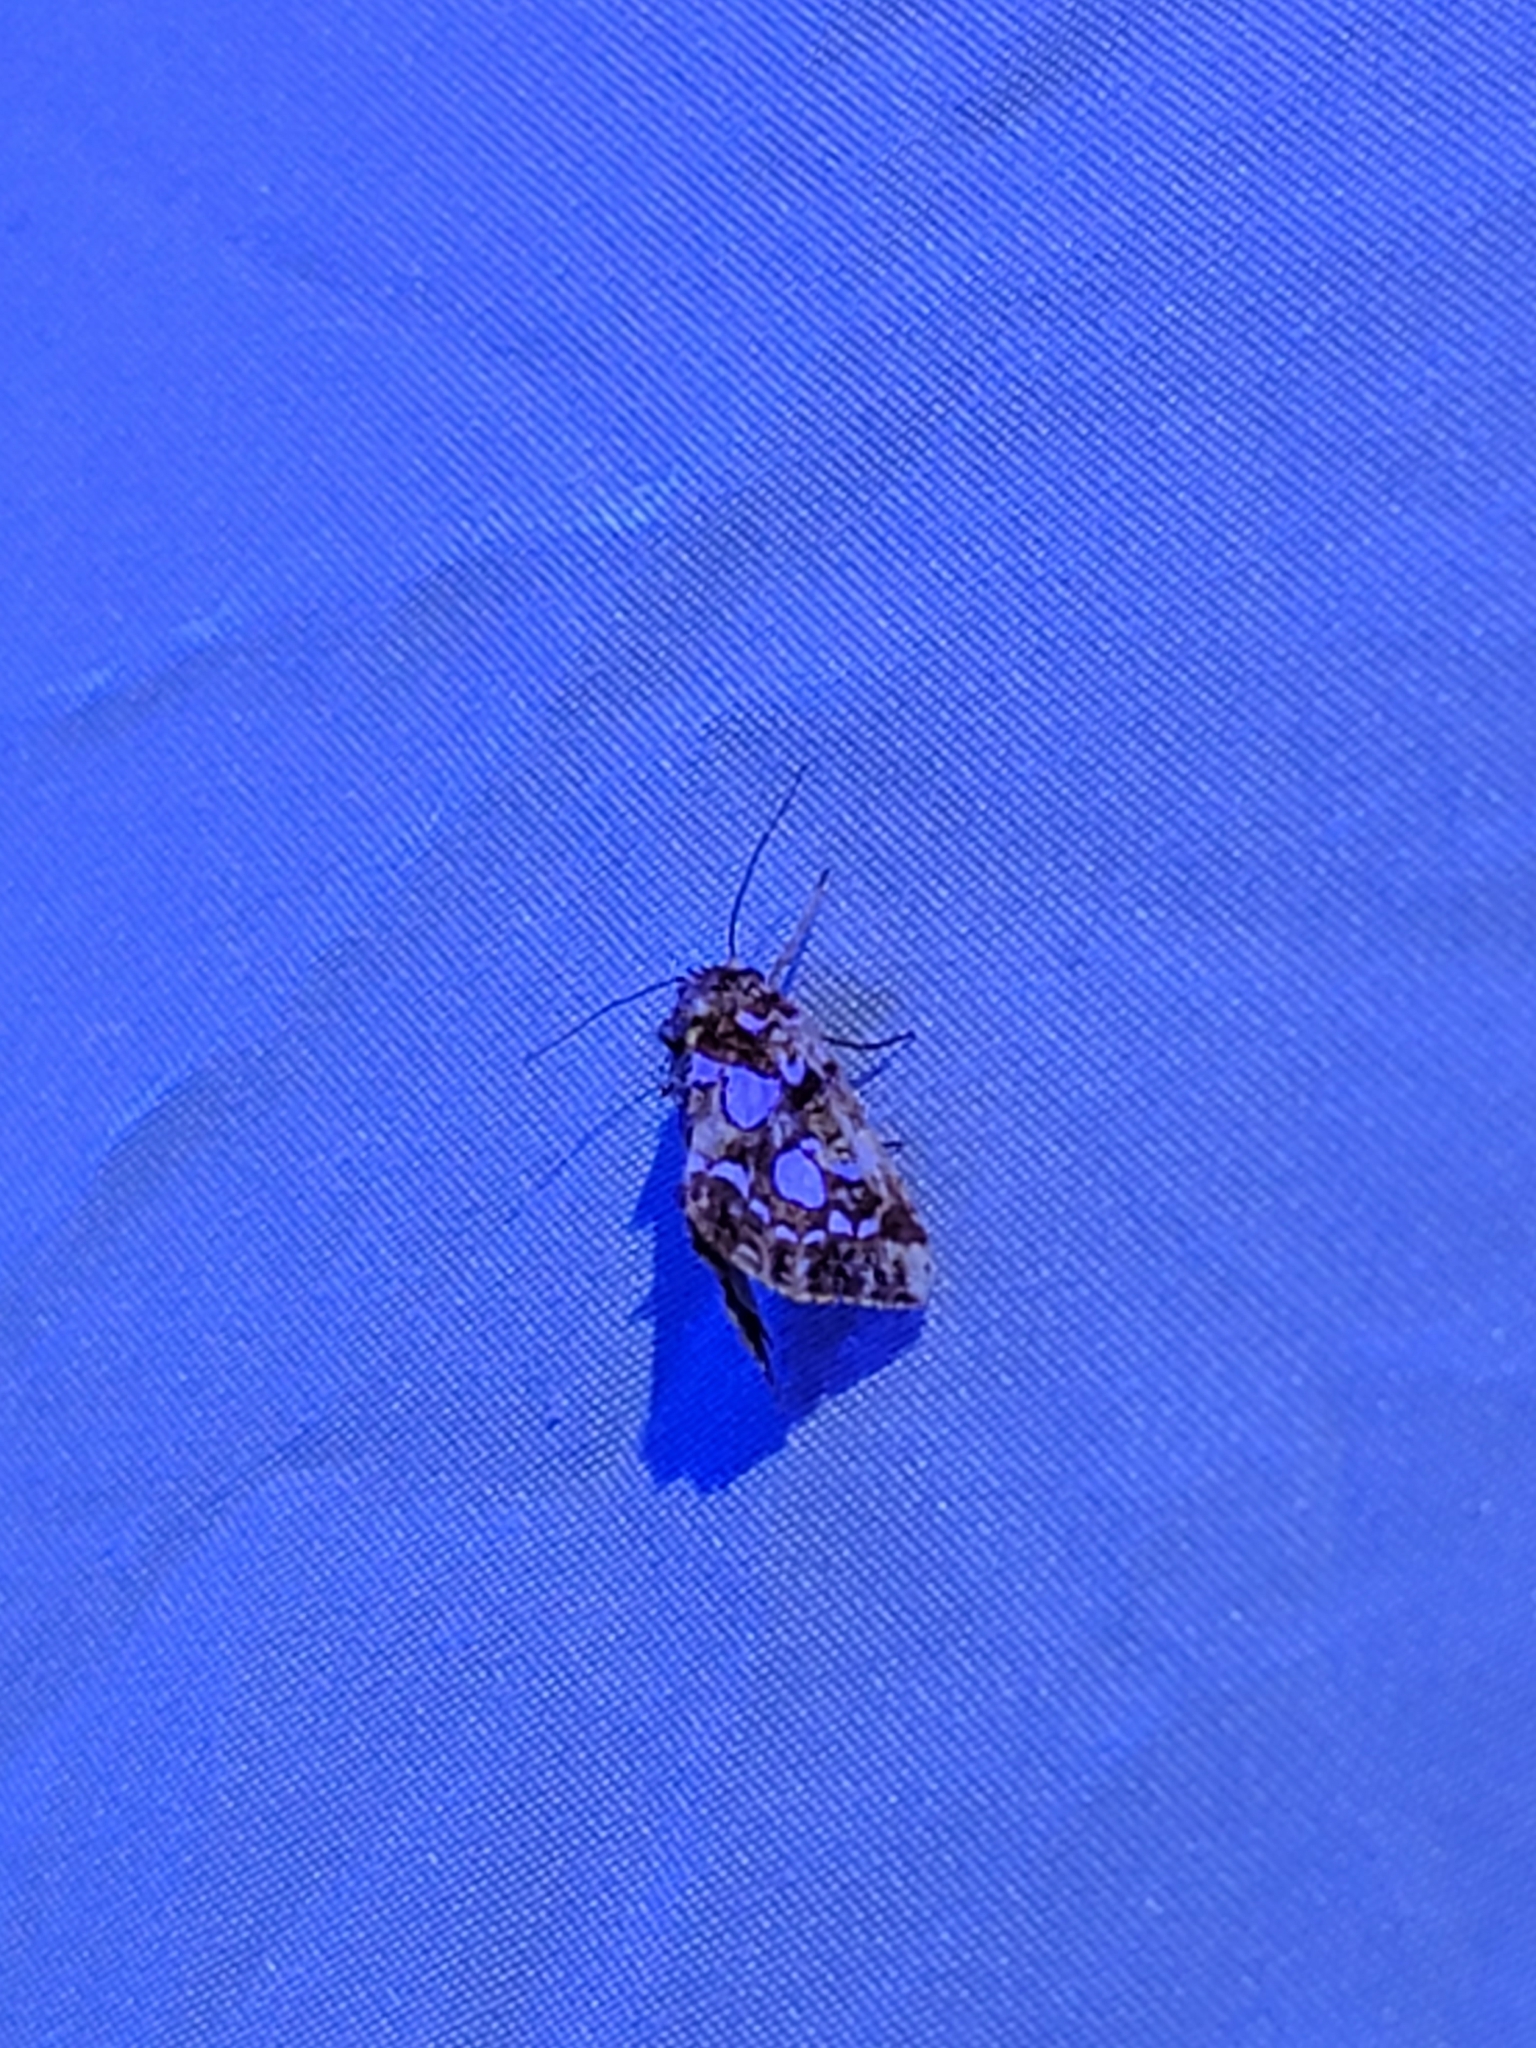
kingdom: Animalia
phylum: Arthropoda
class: Insecta
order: Lepidoptera
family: Noctuidae
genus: Callopistria
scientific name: Callopistria cordata
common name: Silver-spotted fern moth
